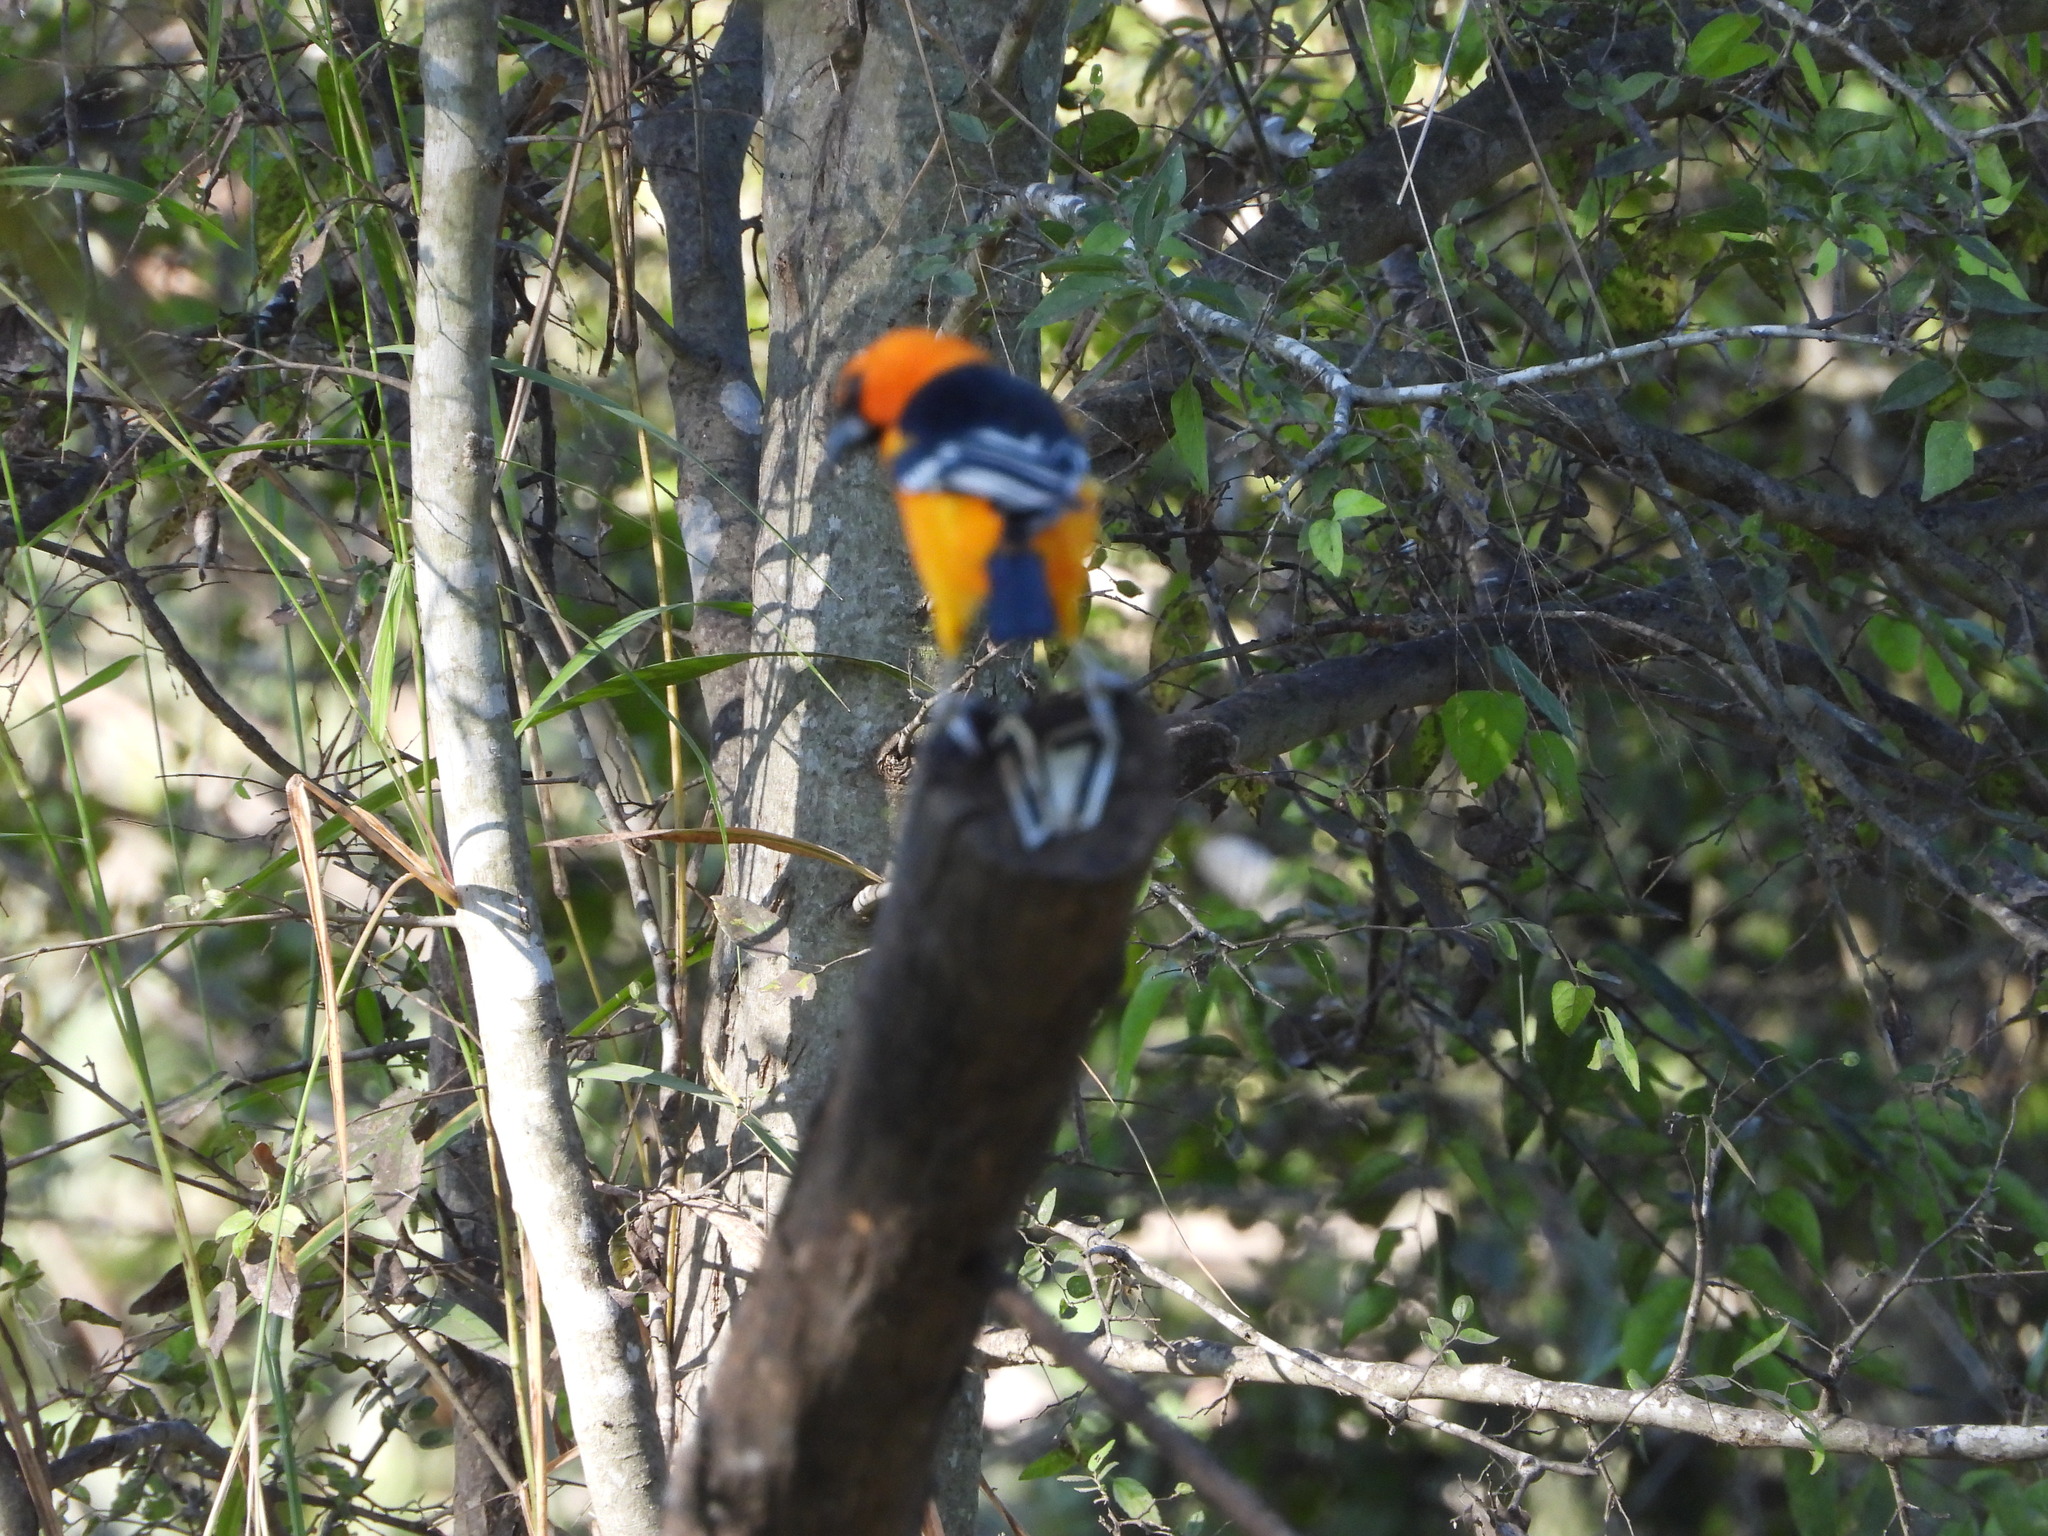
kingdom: Animalia
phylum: Chordata
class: Aves
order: Passeriformes
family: Icteridae
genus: Icterus
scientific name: Icterus gularis
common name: Altamira oriole
